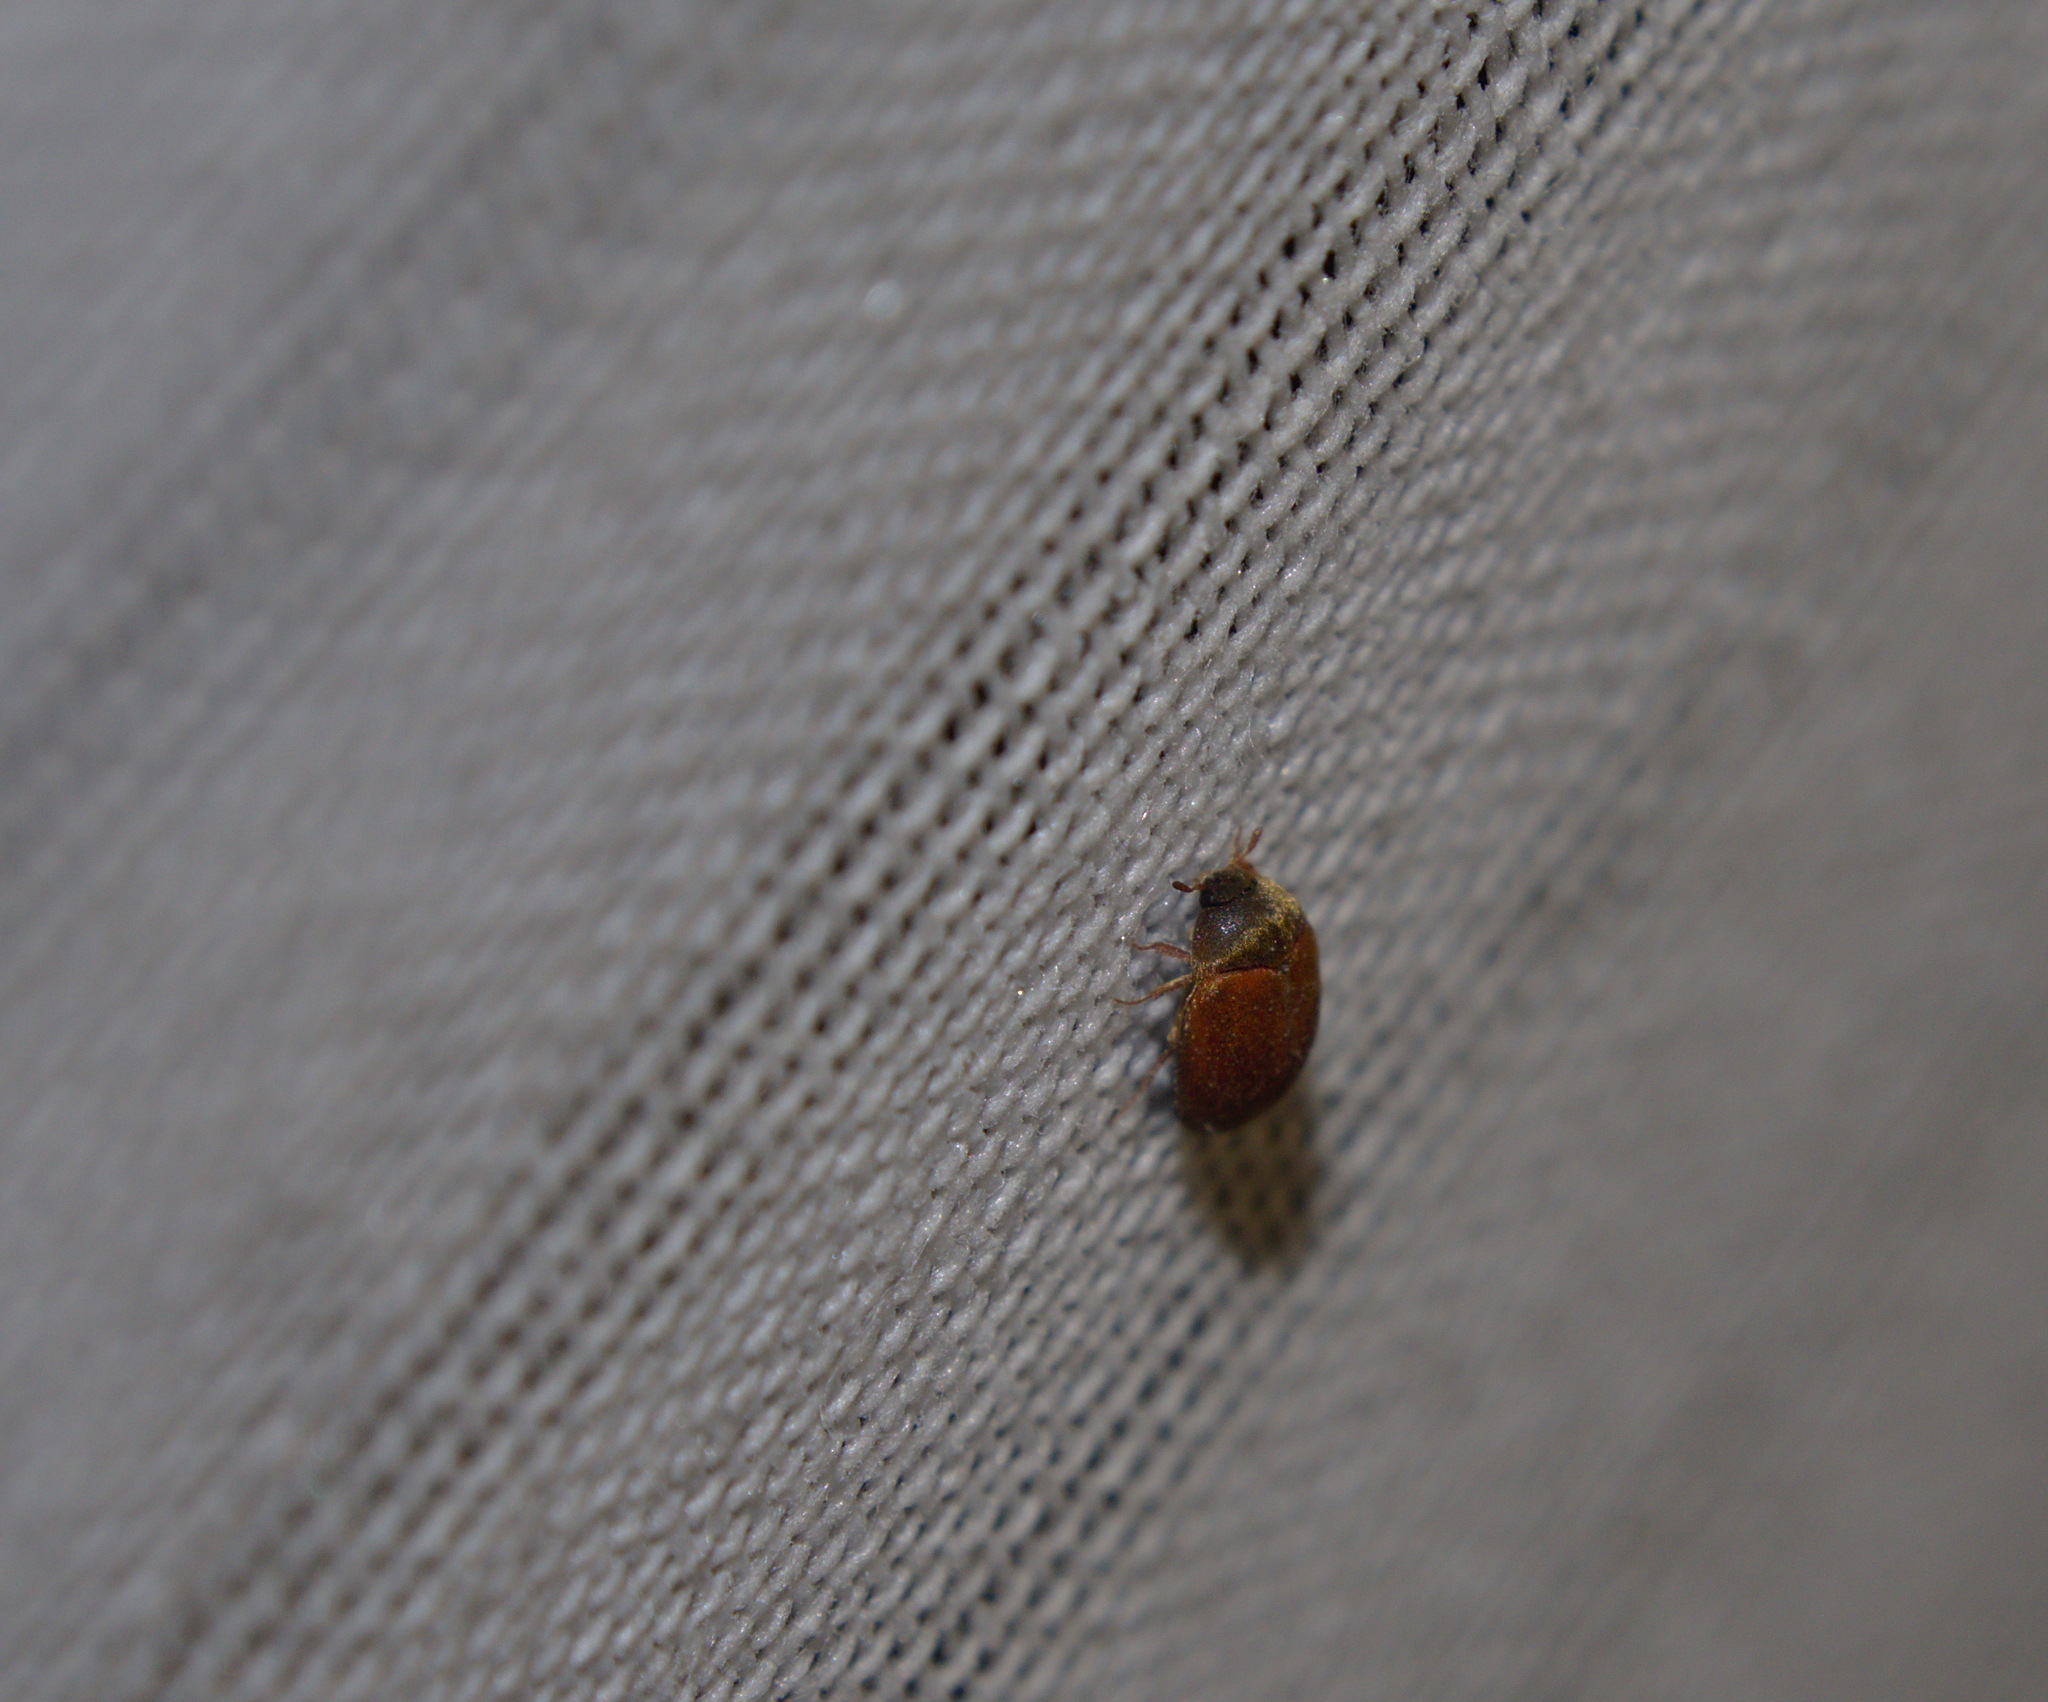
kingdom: Animalia
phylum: Arthropoda
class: Insecta
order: Coleoptera
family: Dermestidae
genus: Attagenus
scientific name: Attagenus smirnovi
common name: Brown carpet beetle
